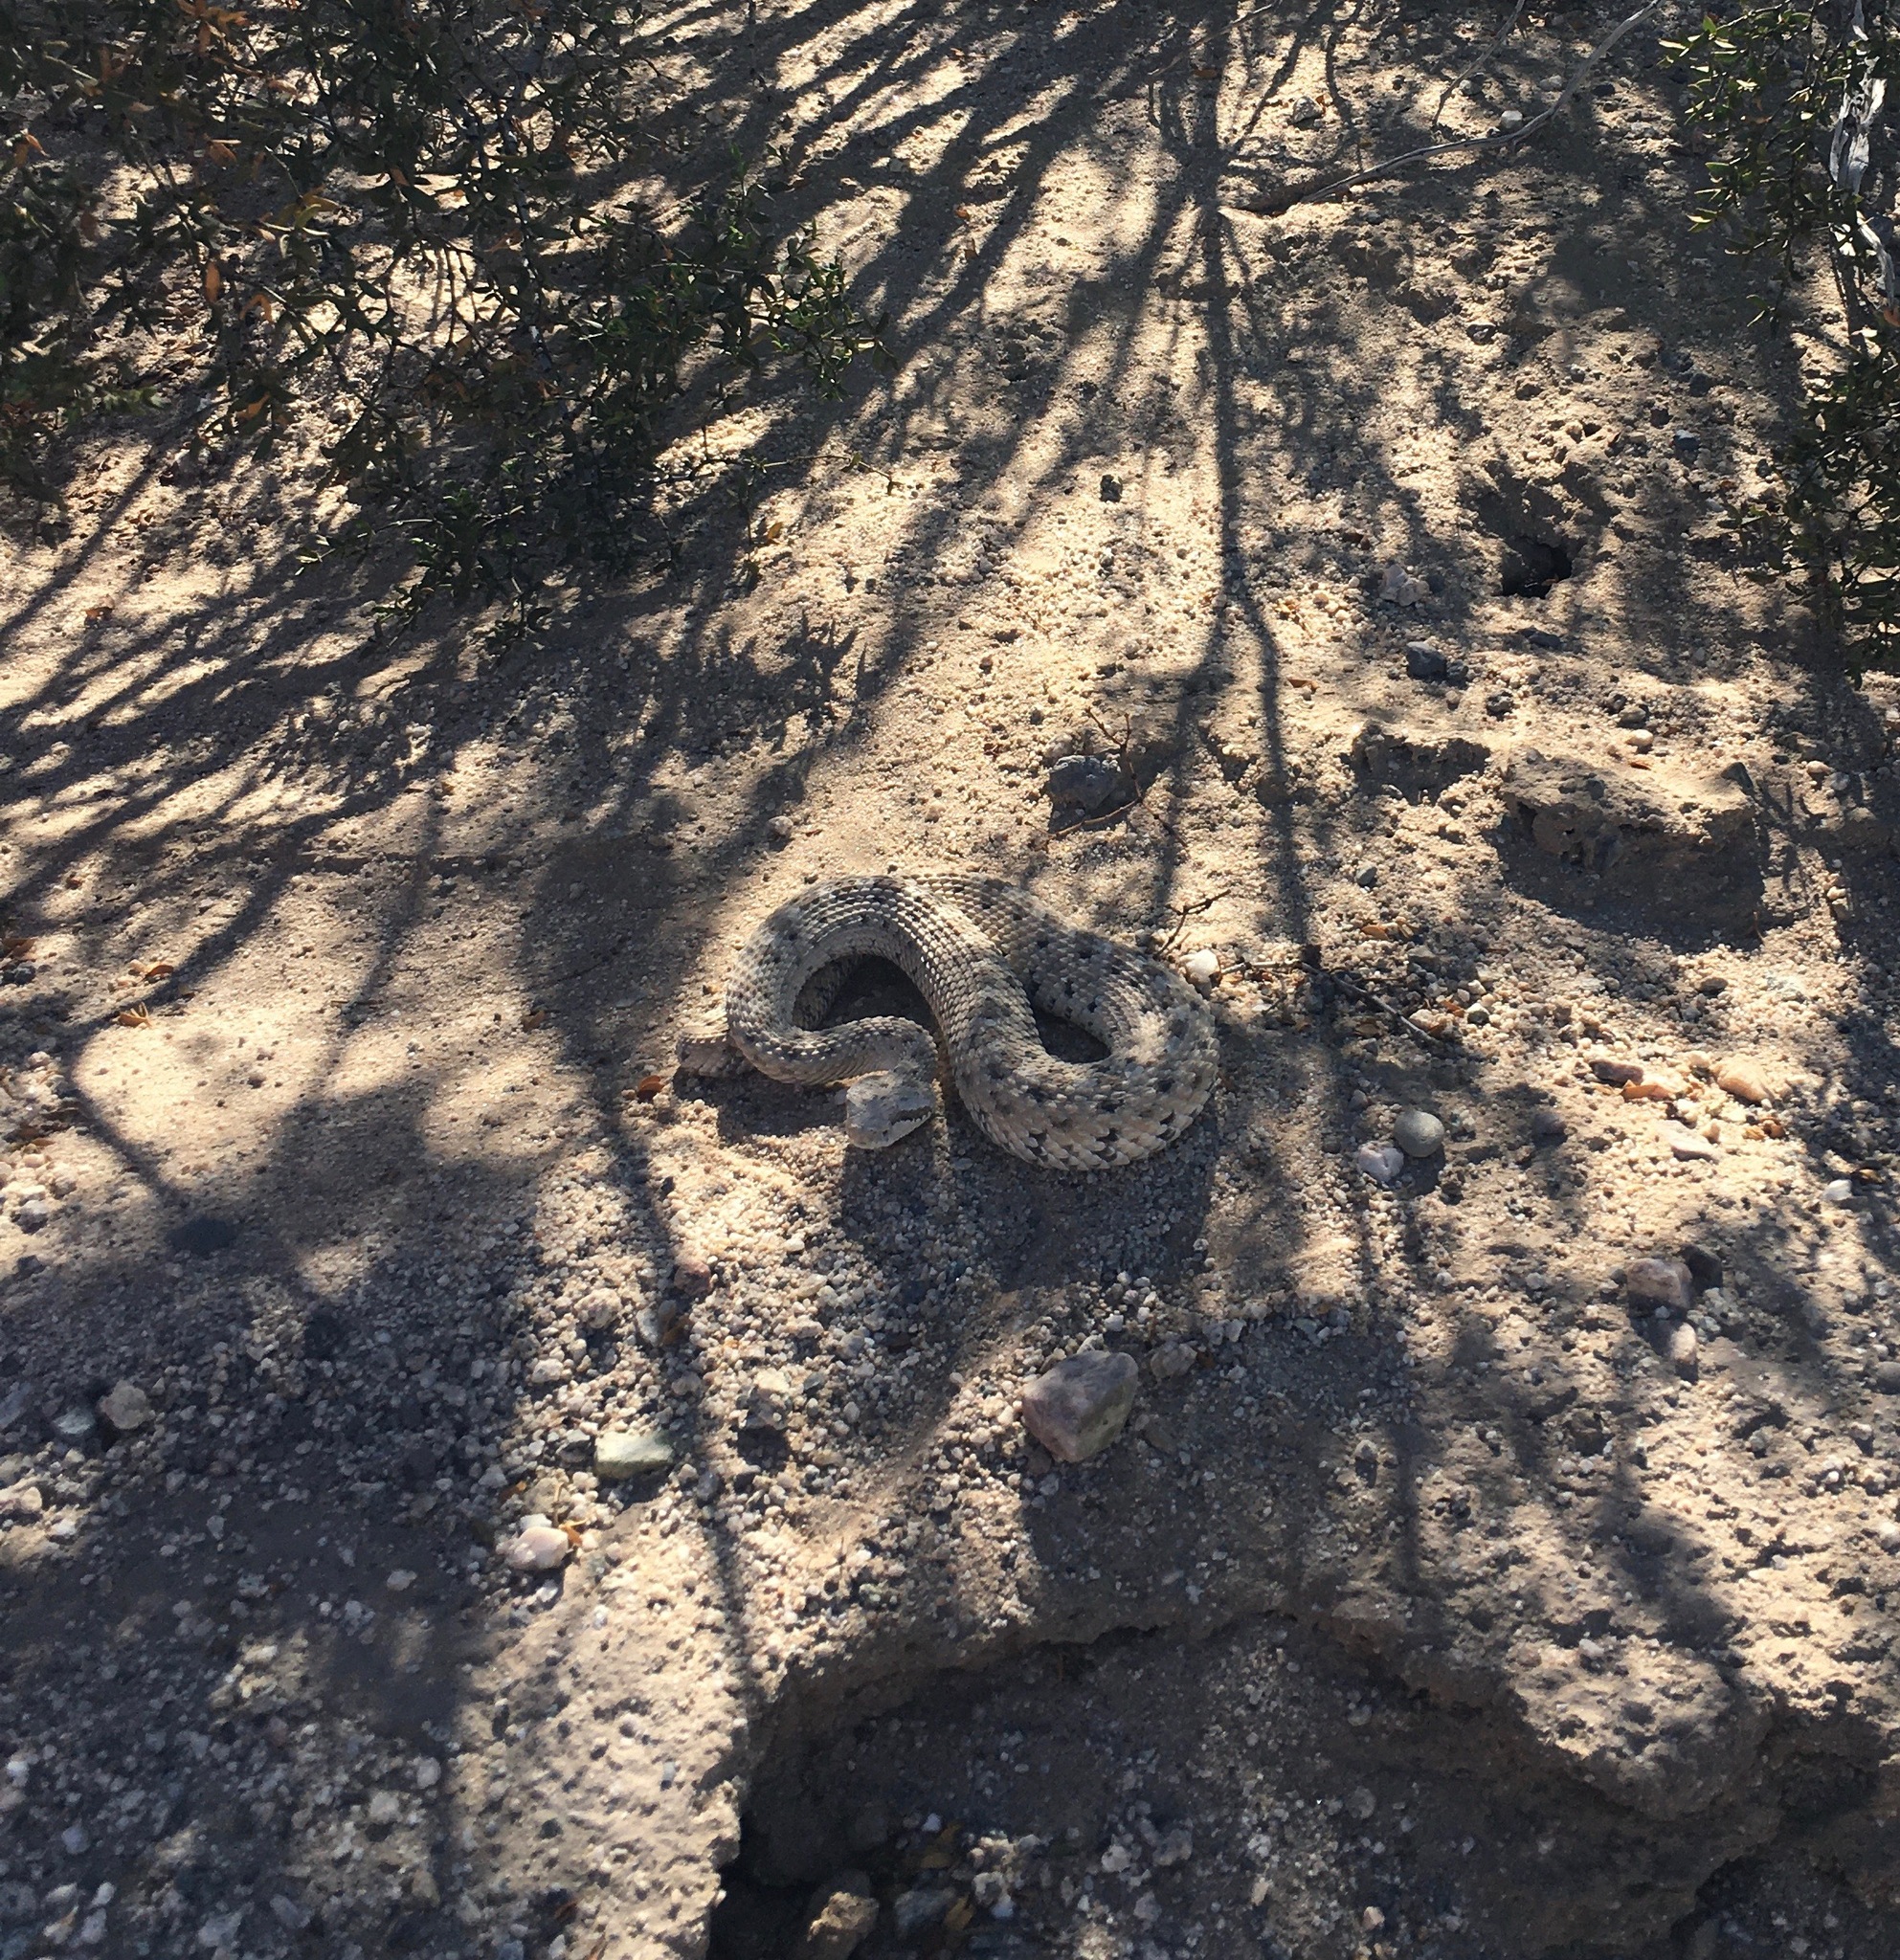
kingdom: Animalia
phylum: Chordata
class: Squamata
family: Viperidae
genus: Crotalus
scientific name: Crotalus cerastes
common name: Sidewinder
